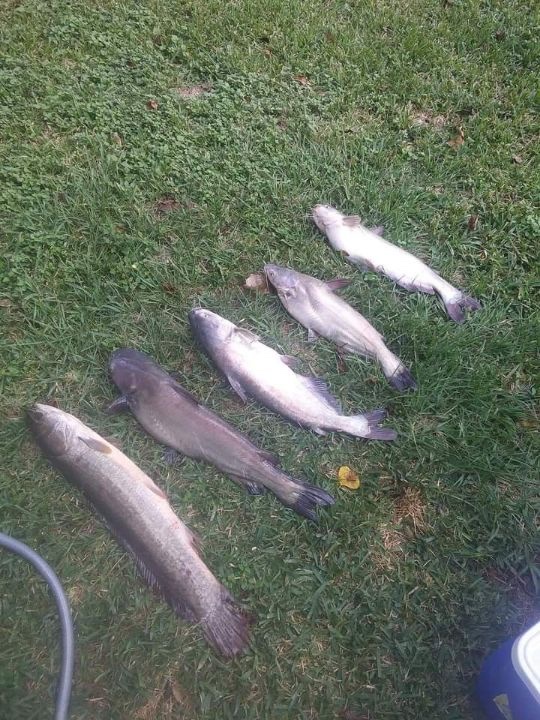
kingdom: Animalia
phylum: Chordata
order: Amiiformes
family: Amiidae
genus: Amia
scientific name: Amia calva
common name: Bowfin
